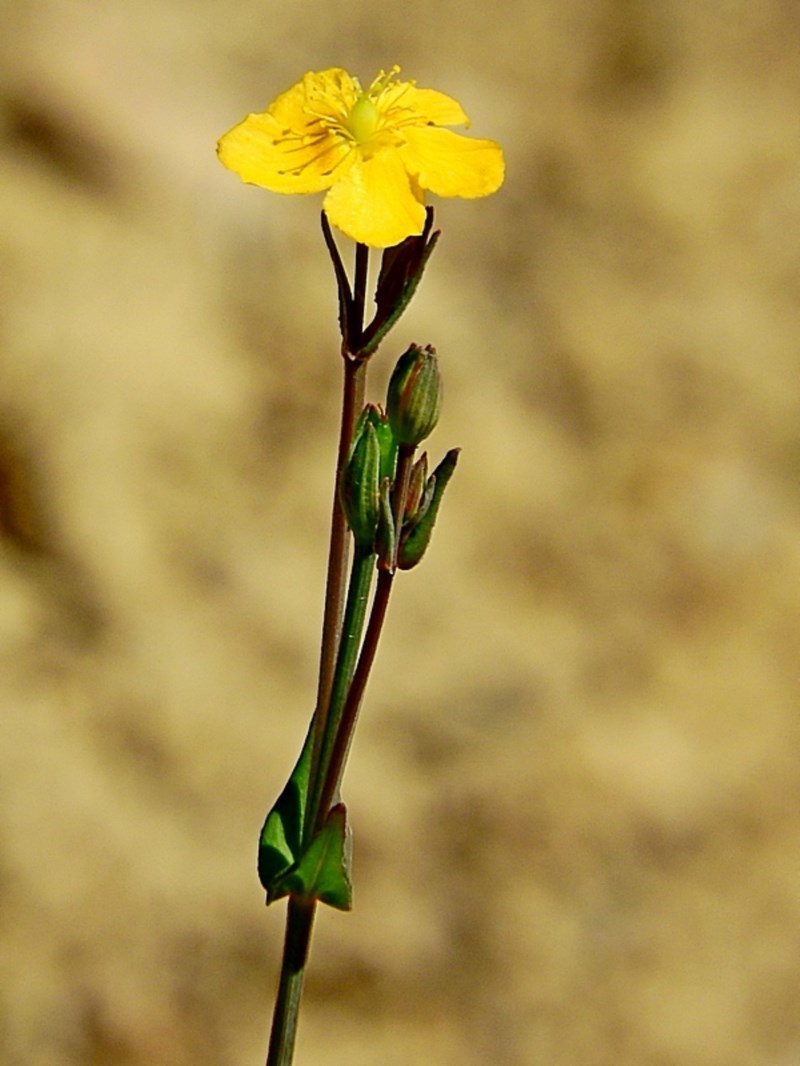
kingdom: Plantae
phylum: Tracheophyta
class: Magnoliopsida
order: Malpighiales
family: Hypericaceae
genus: Hypericum
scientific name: Hypericum gramineum
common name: Grassy st. johnswort
